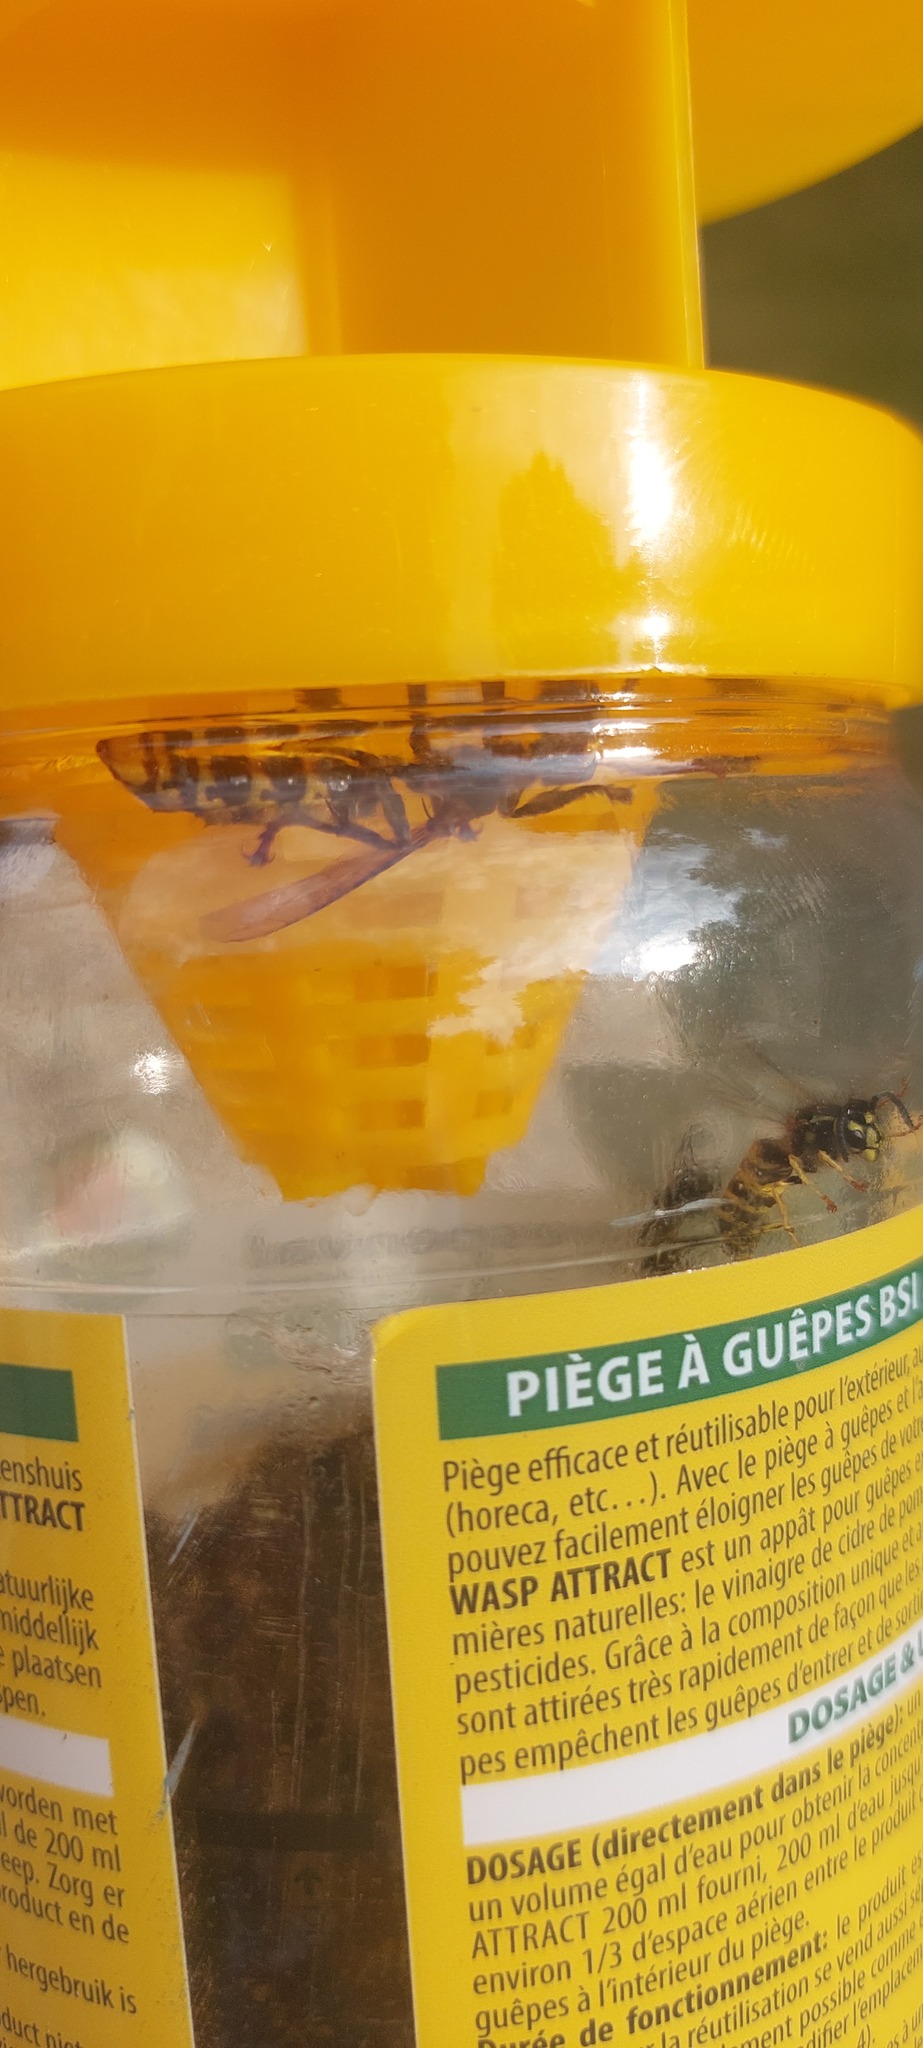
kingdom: Animalia
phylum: Arthropoda
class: Insecta
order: Hymenoptera
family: Vespidae
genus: Vespa
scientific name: Vespa crabro
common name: Hornet
